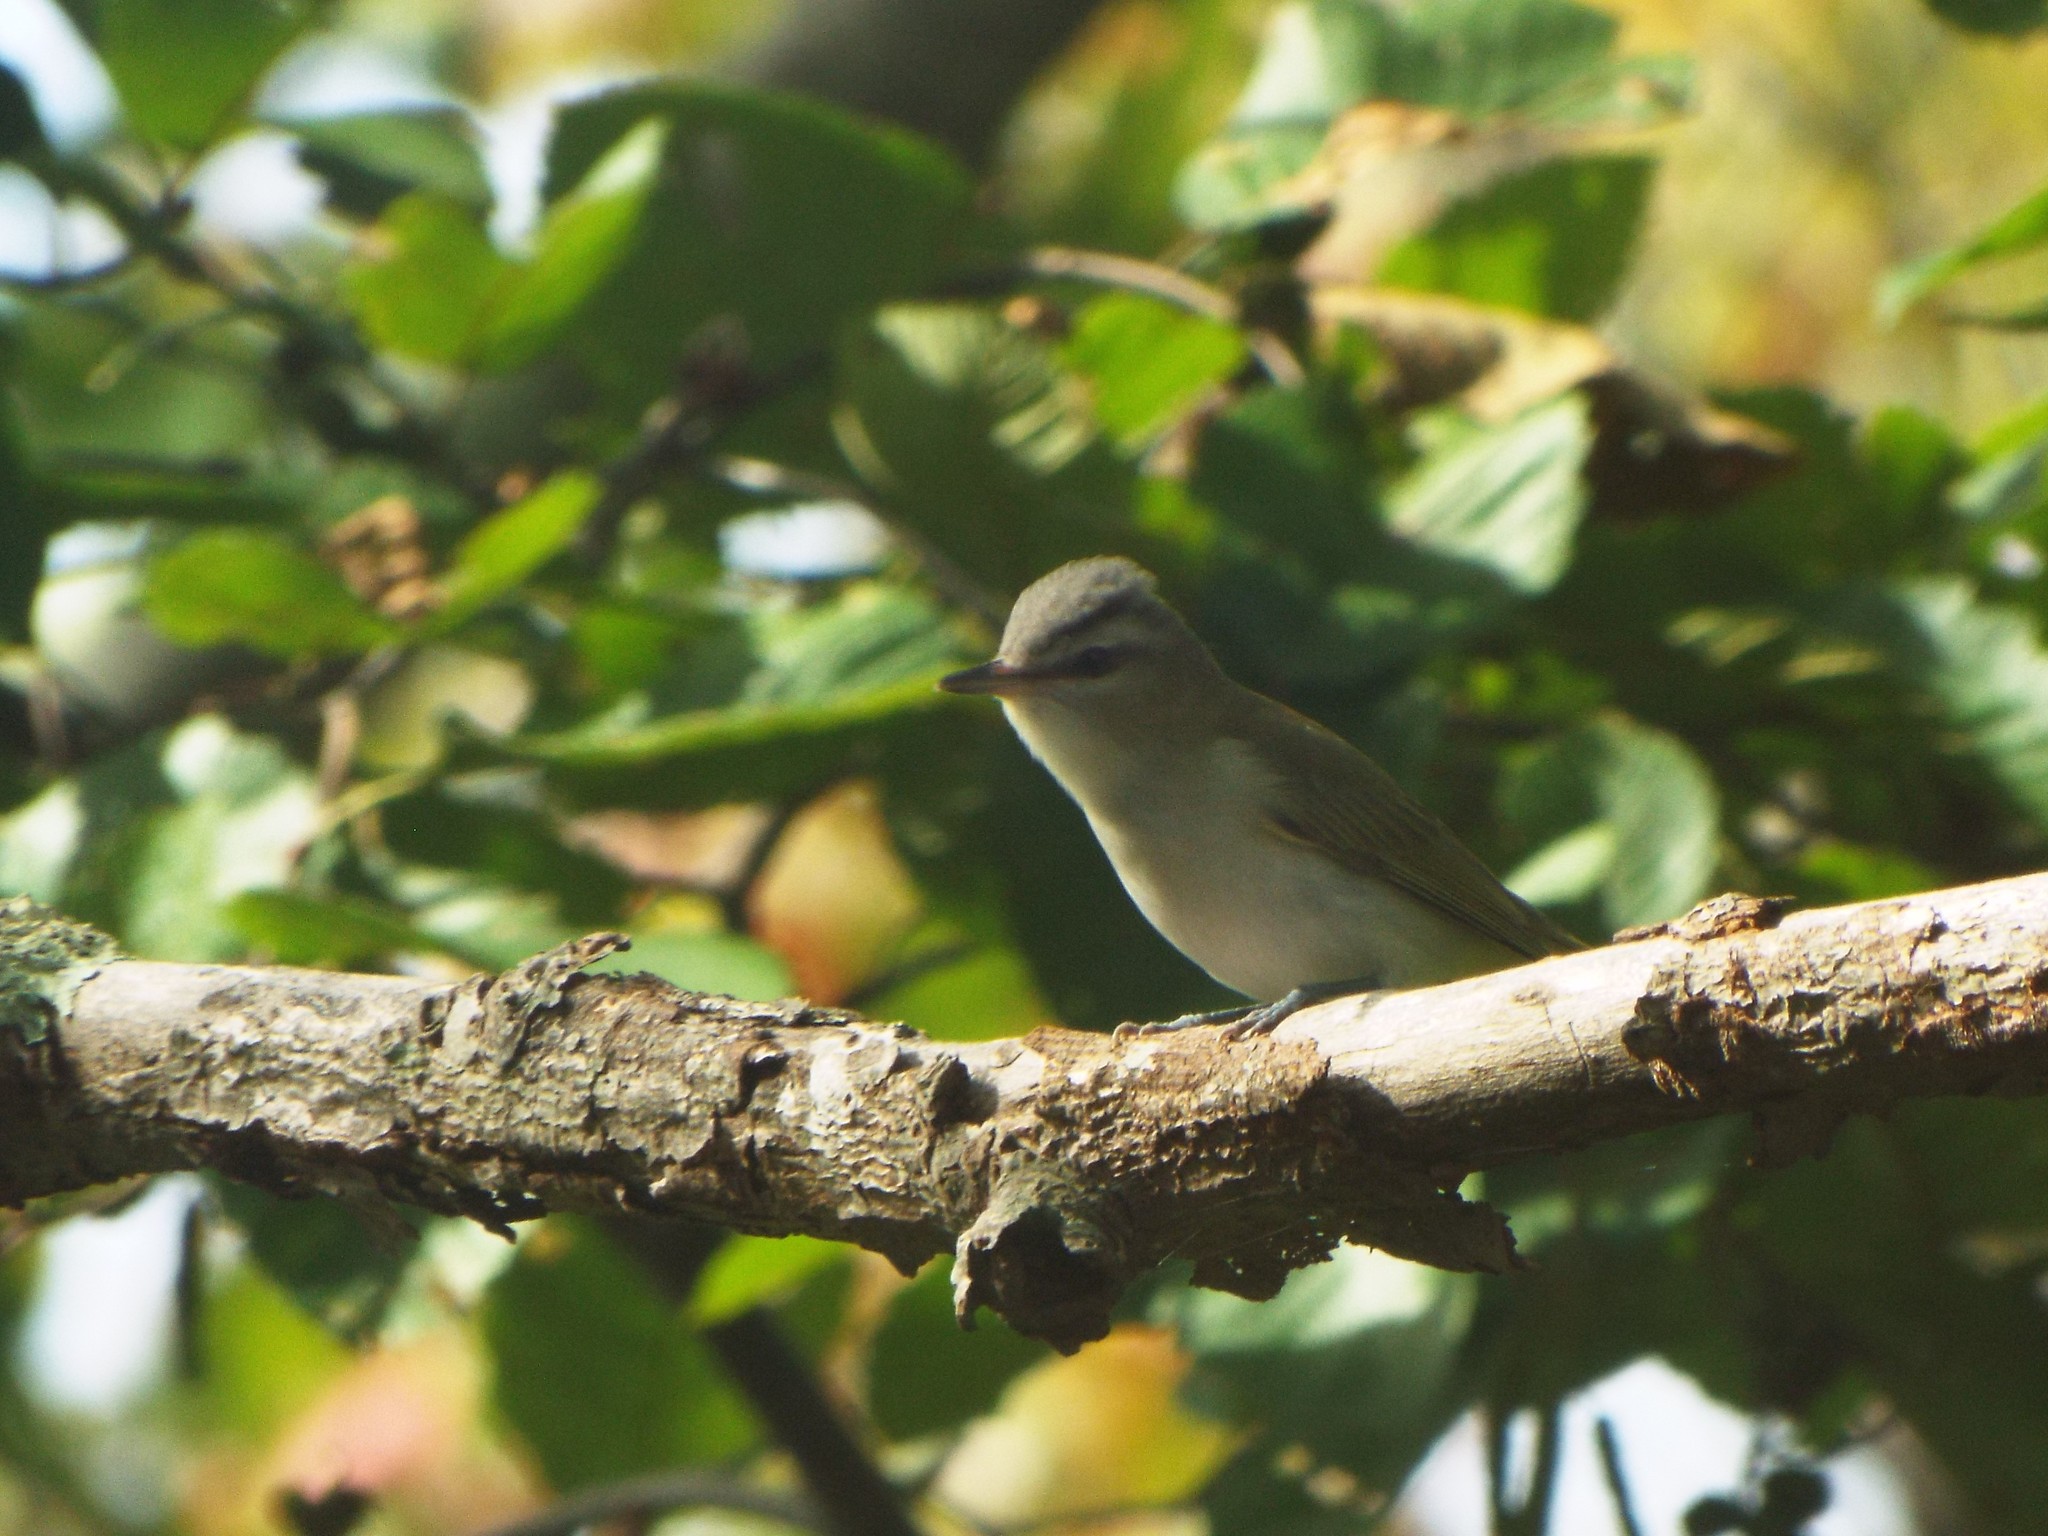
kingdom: Animalia
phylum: Chordata
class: Aves
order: Passeriformes
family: Vireonidae
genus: Vireo
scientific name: Vireo olivaceus
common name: Red-eyed vireo
